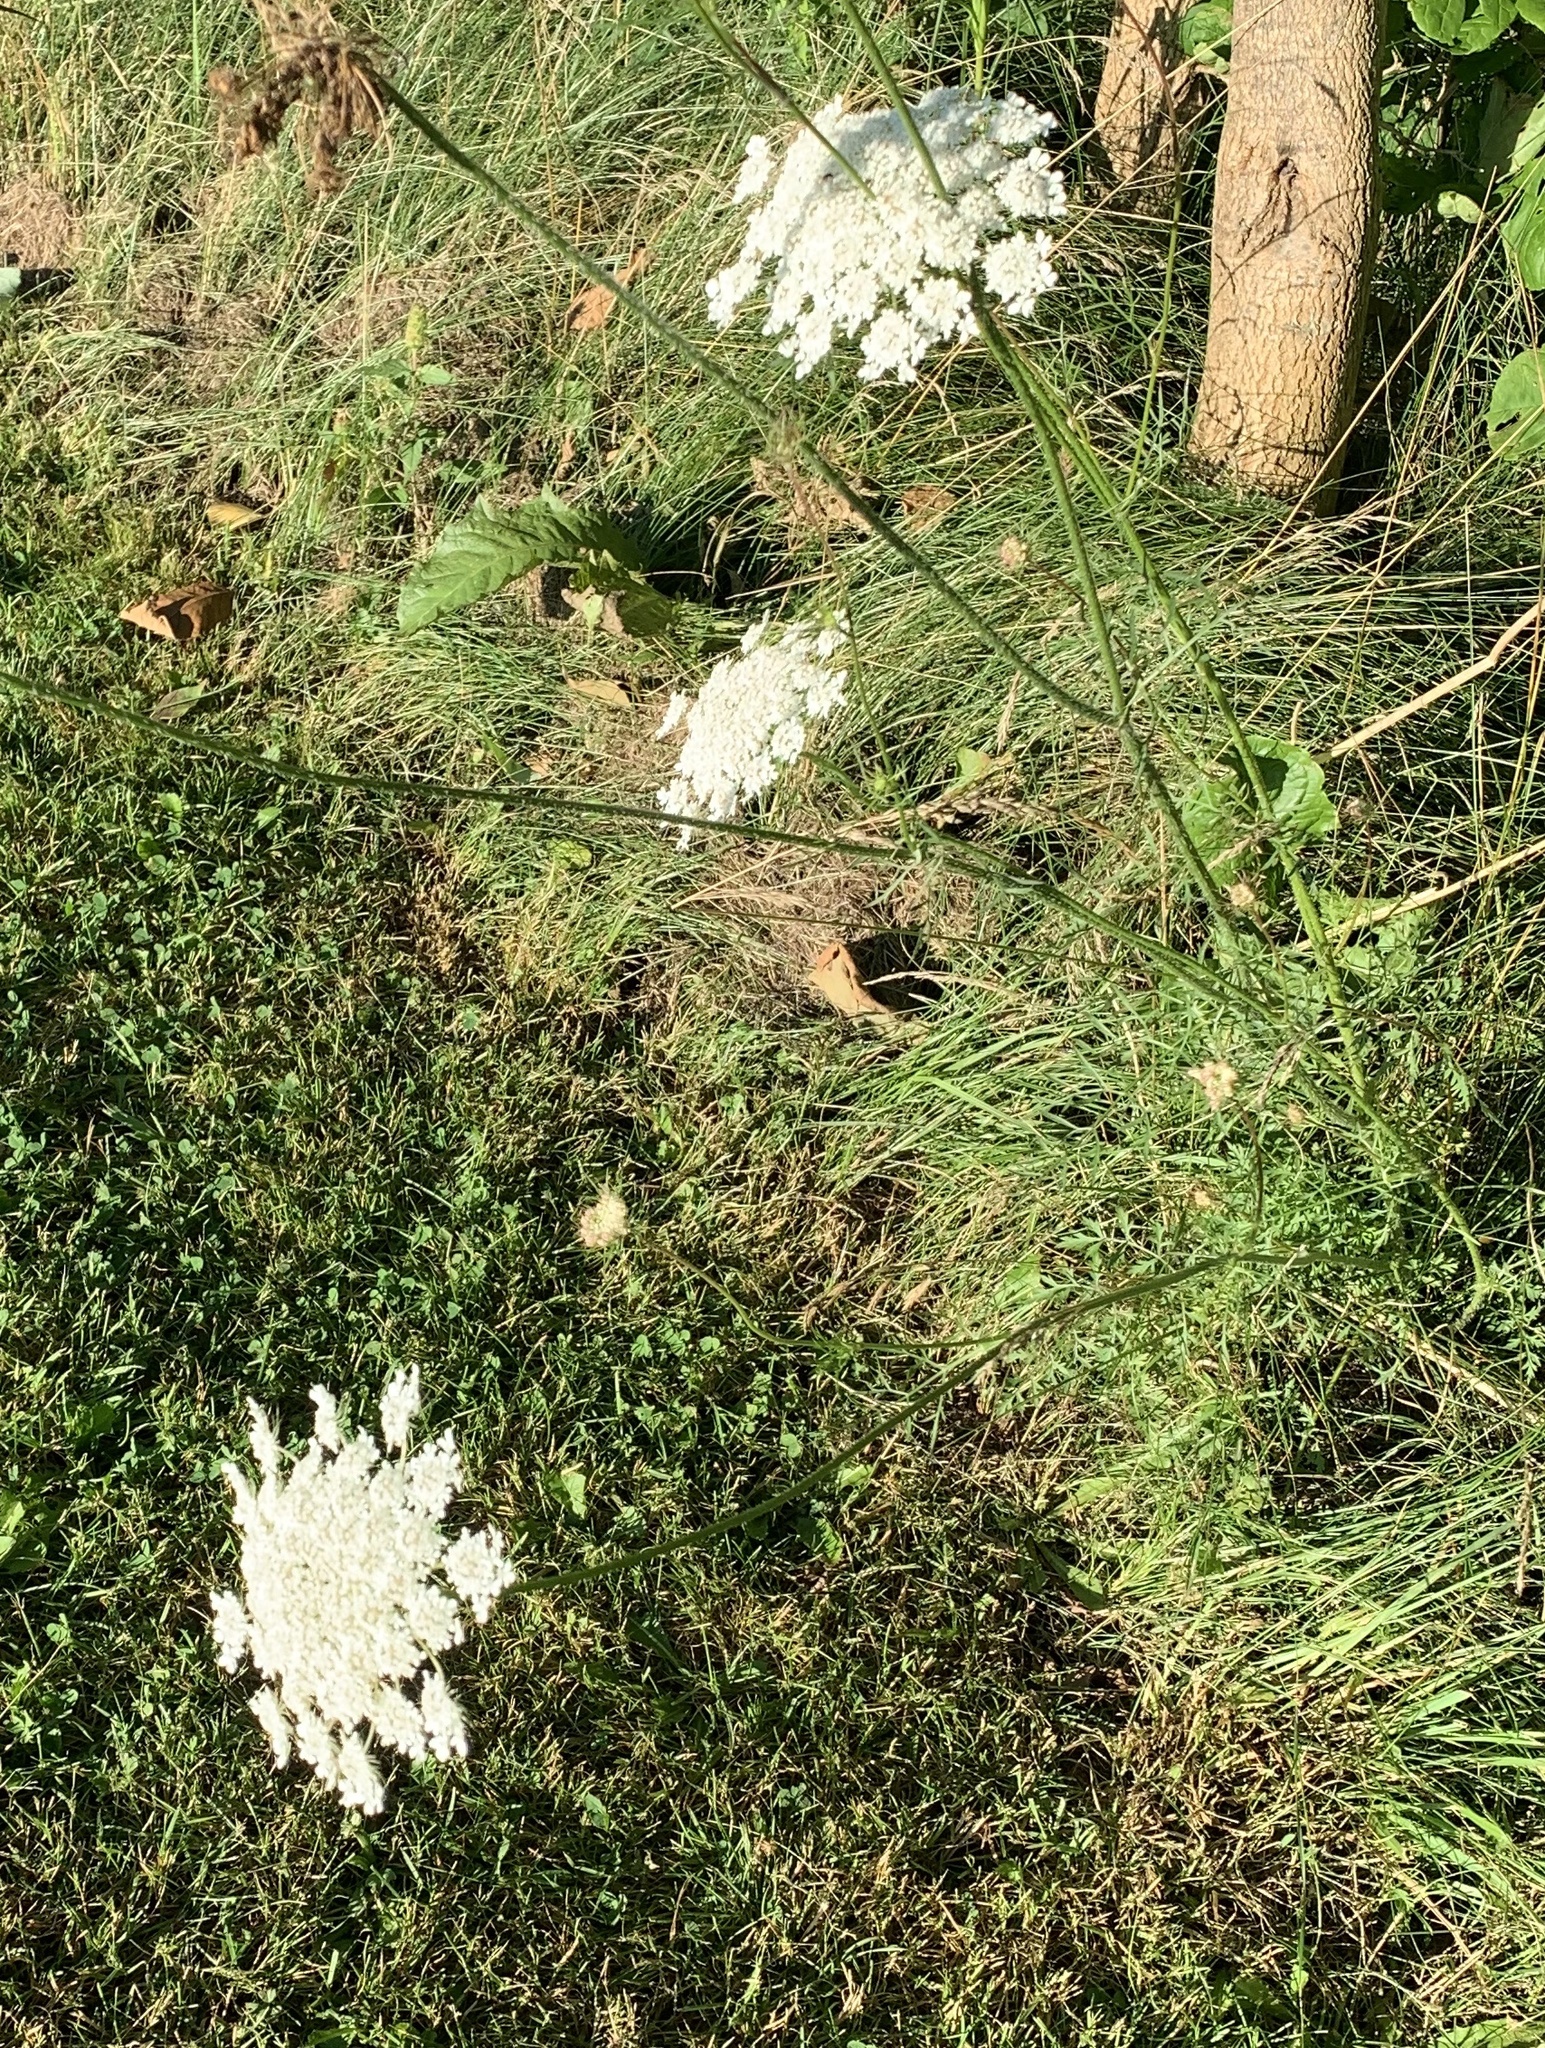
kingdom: Plantae
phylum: Tracheophyta
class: Magnoliopsida
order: Apiales
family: Apiaceae
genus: Daucus
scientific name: Daucus carota
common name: Wild carrot
